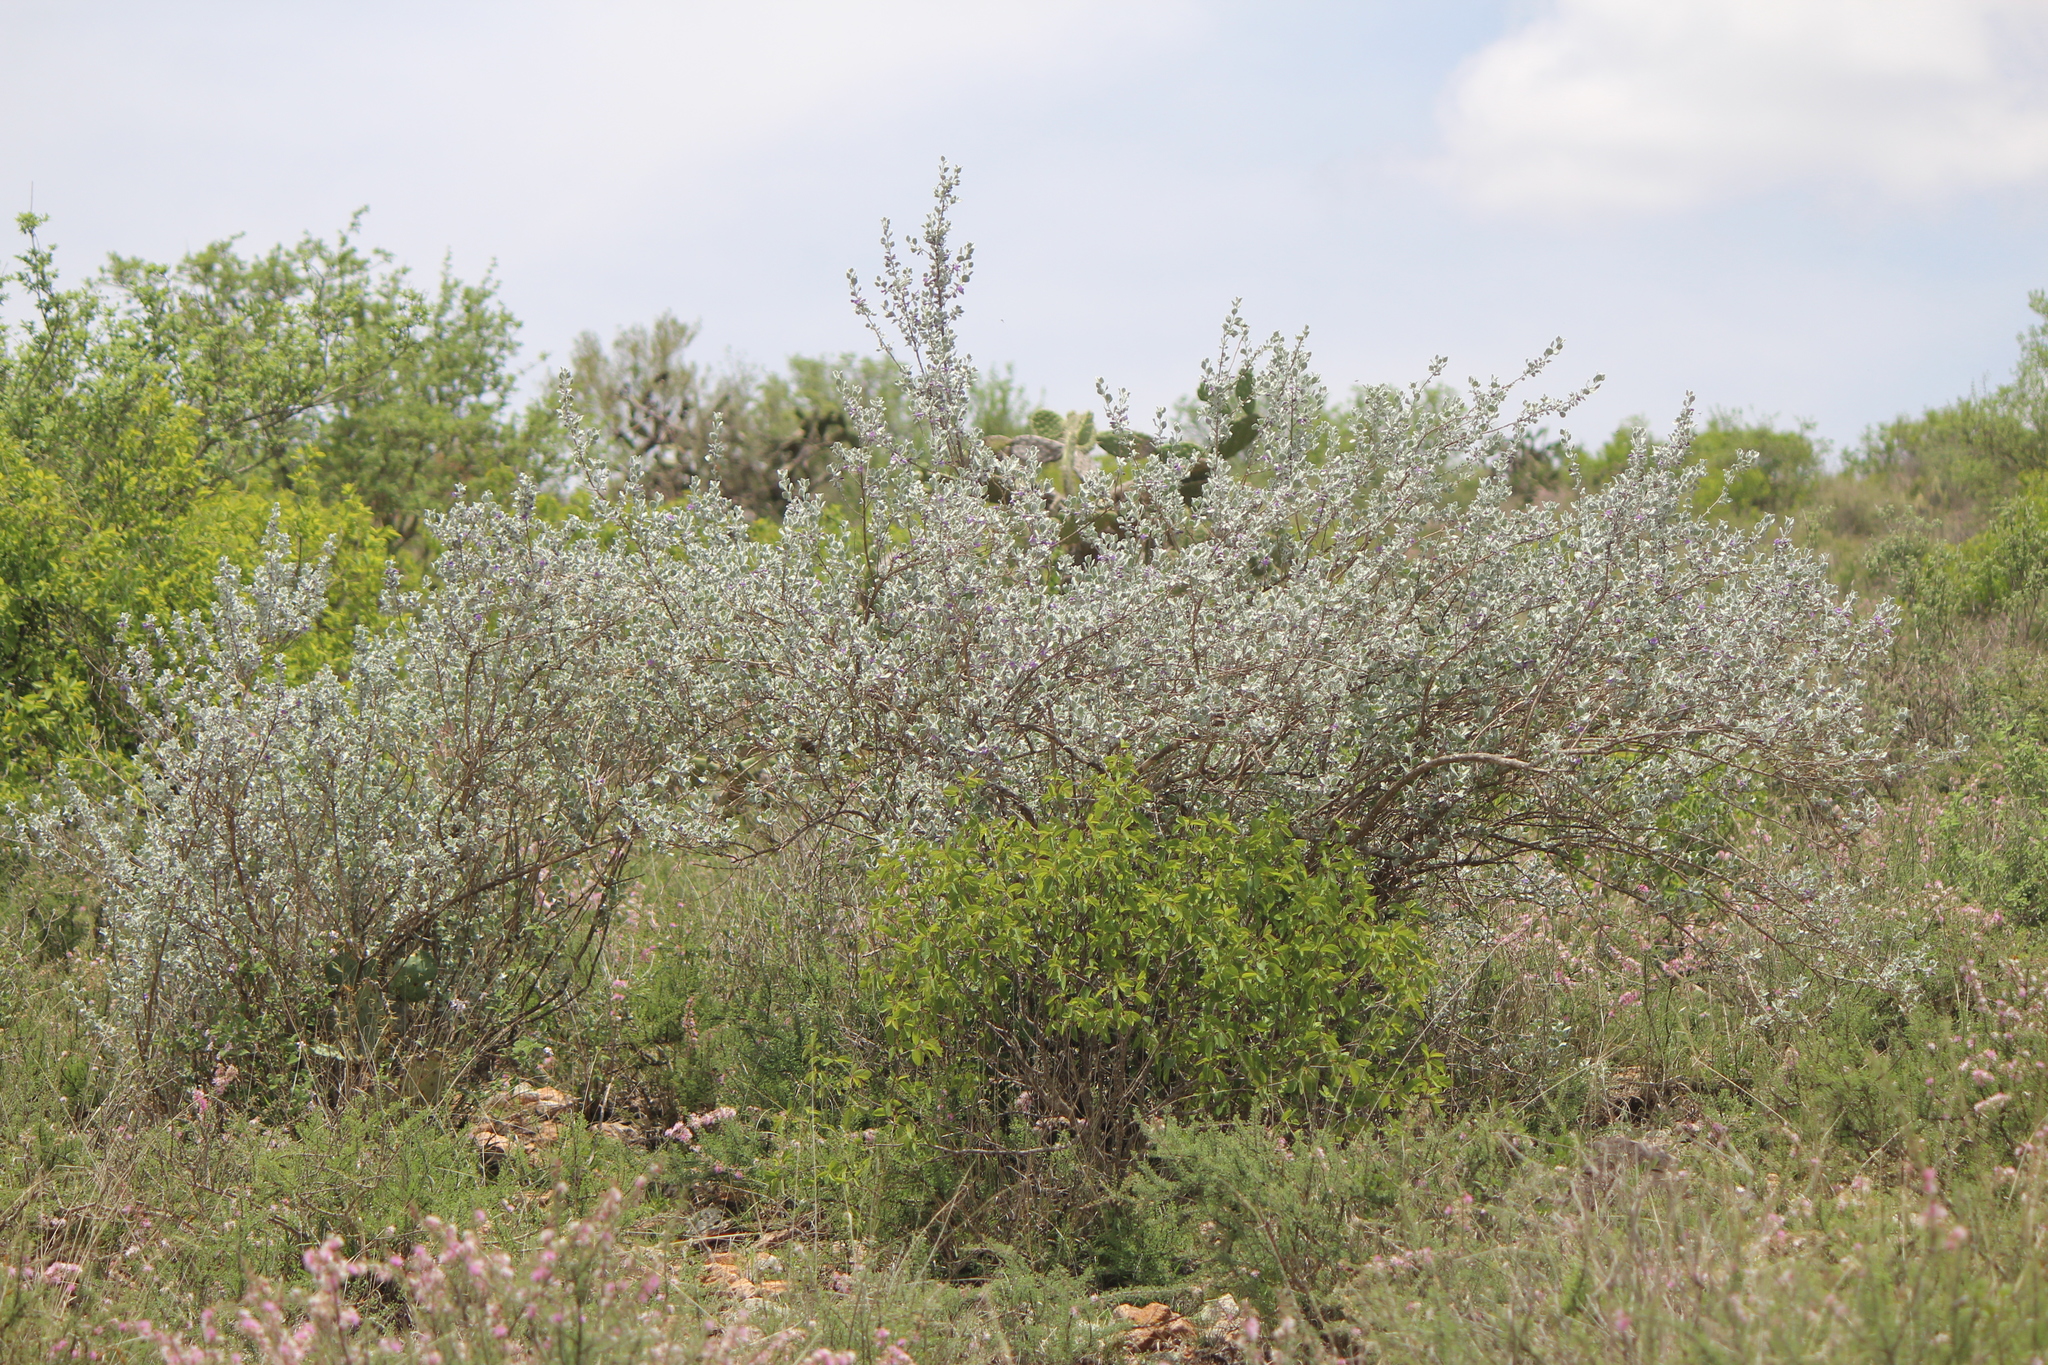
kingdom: Plantae
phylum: Tracheophyta
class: Magnoliopsida
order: Lamiales
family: Scrophulariaceae
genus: Leucophyllum
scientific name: Leucophyllum ambiguum
